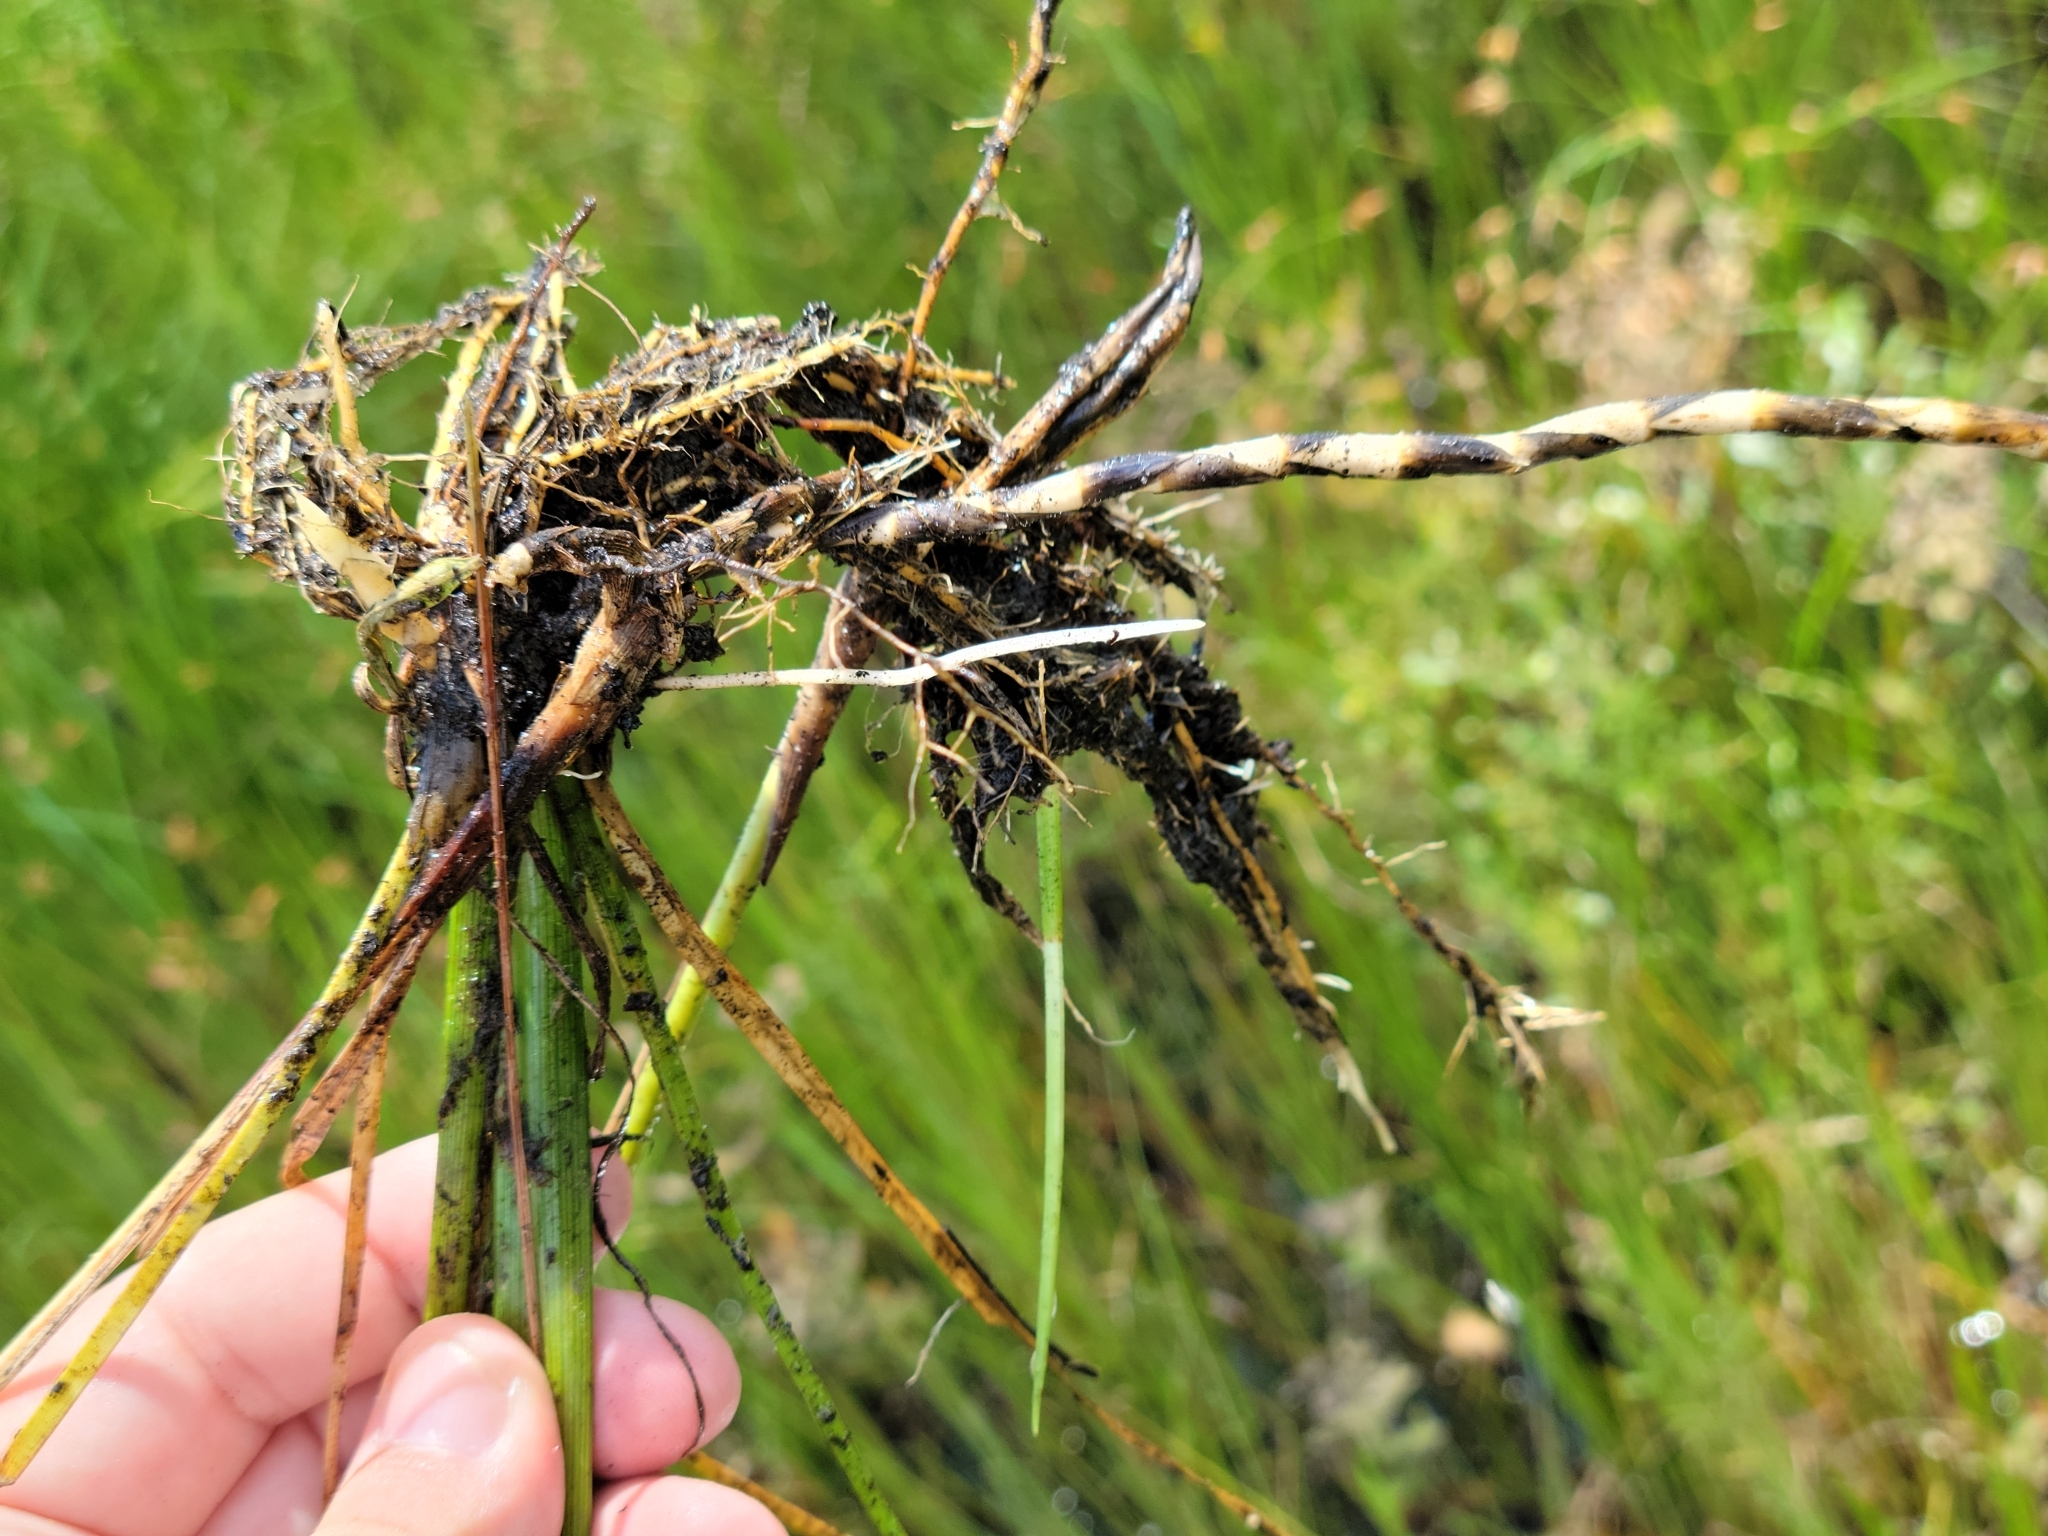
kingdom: Plantae
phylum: Tracheophyta
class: Liliopsida
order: Poales
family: Cyperaceae
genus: Rhynchospora
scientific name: Rhynchospora inundata
